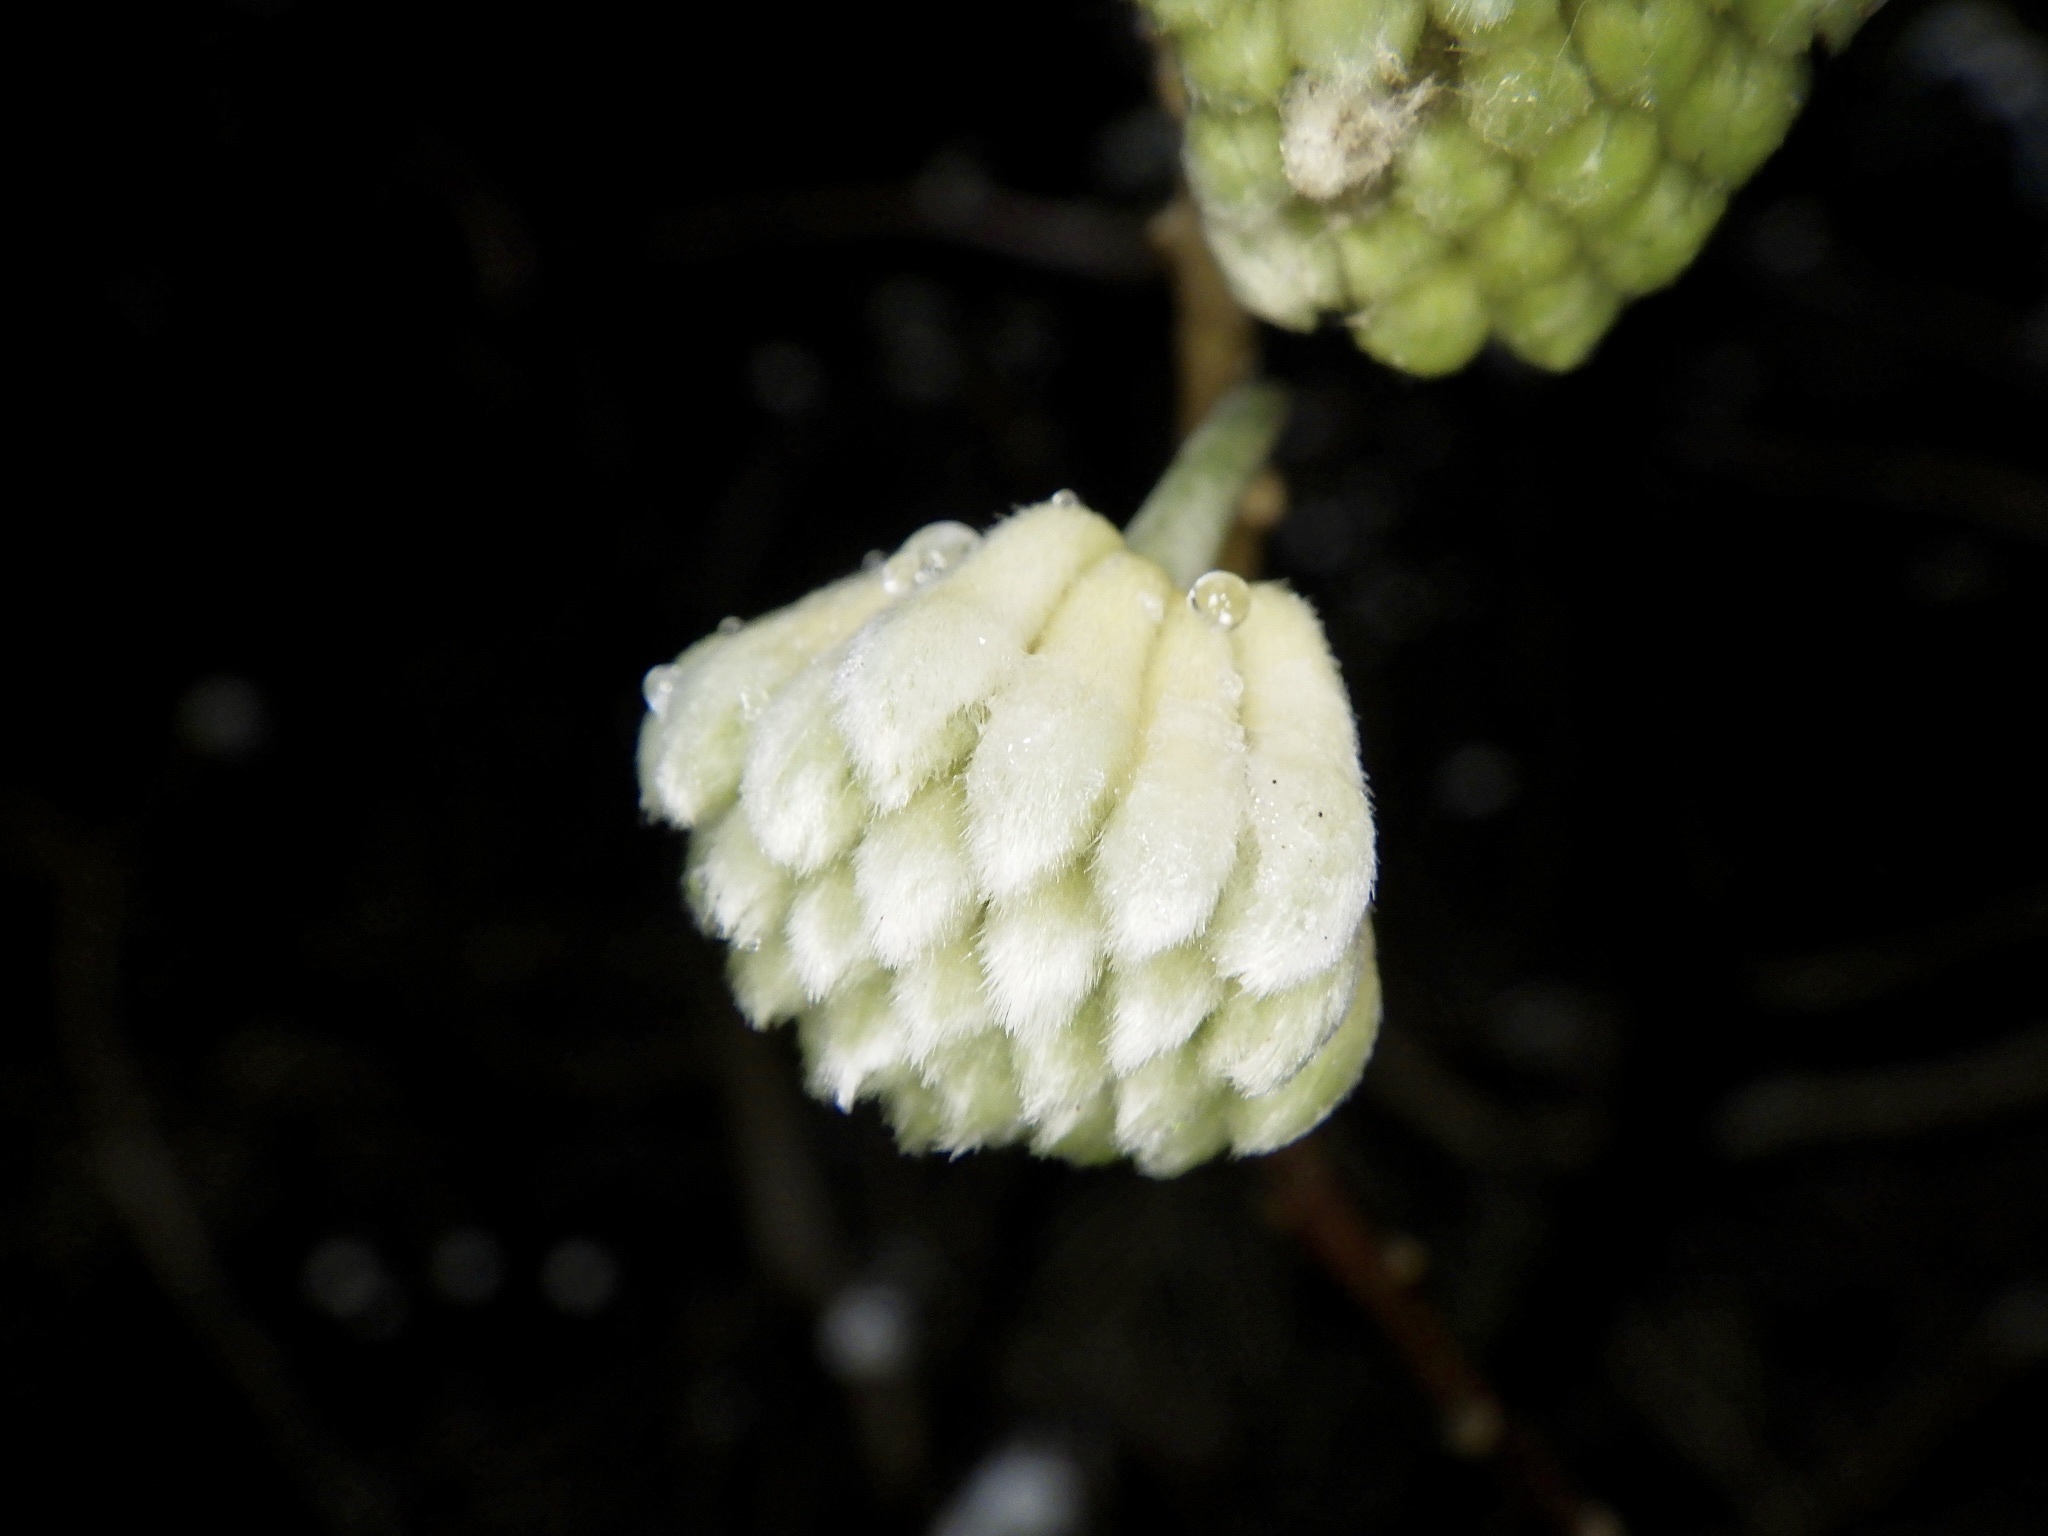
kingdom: Plantae
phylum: Tracheophyta
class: Magnoliopsida
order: Malvales
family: Thymelaeaceae
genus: Edgeworthia
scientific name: Edgeworthia chrysantha
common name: Oriental paperbush
